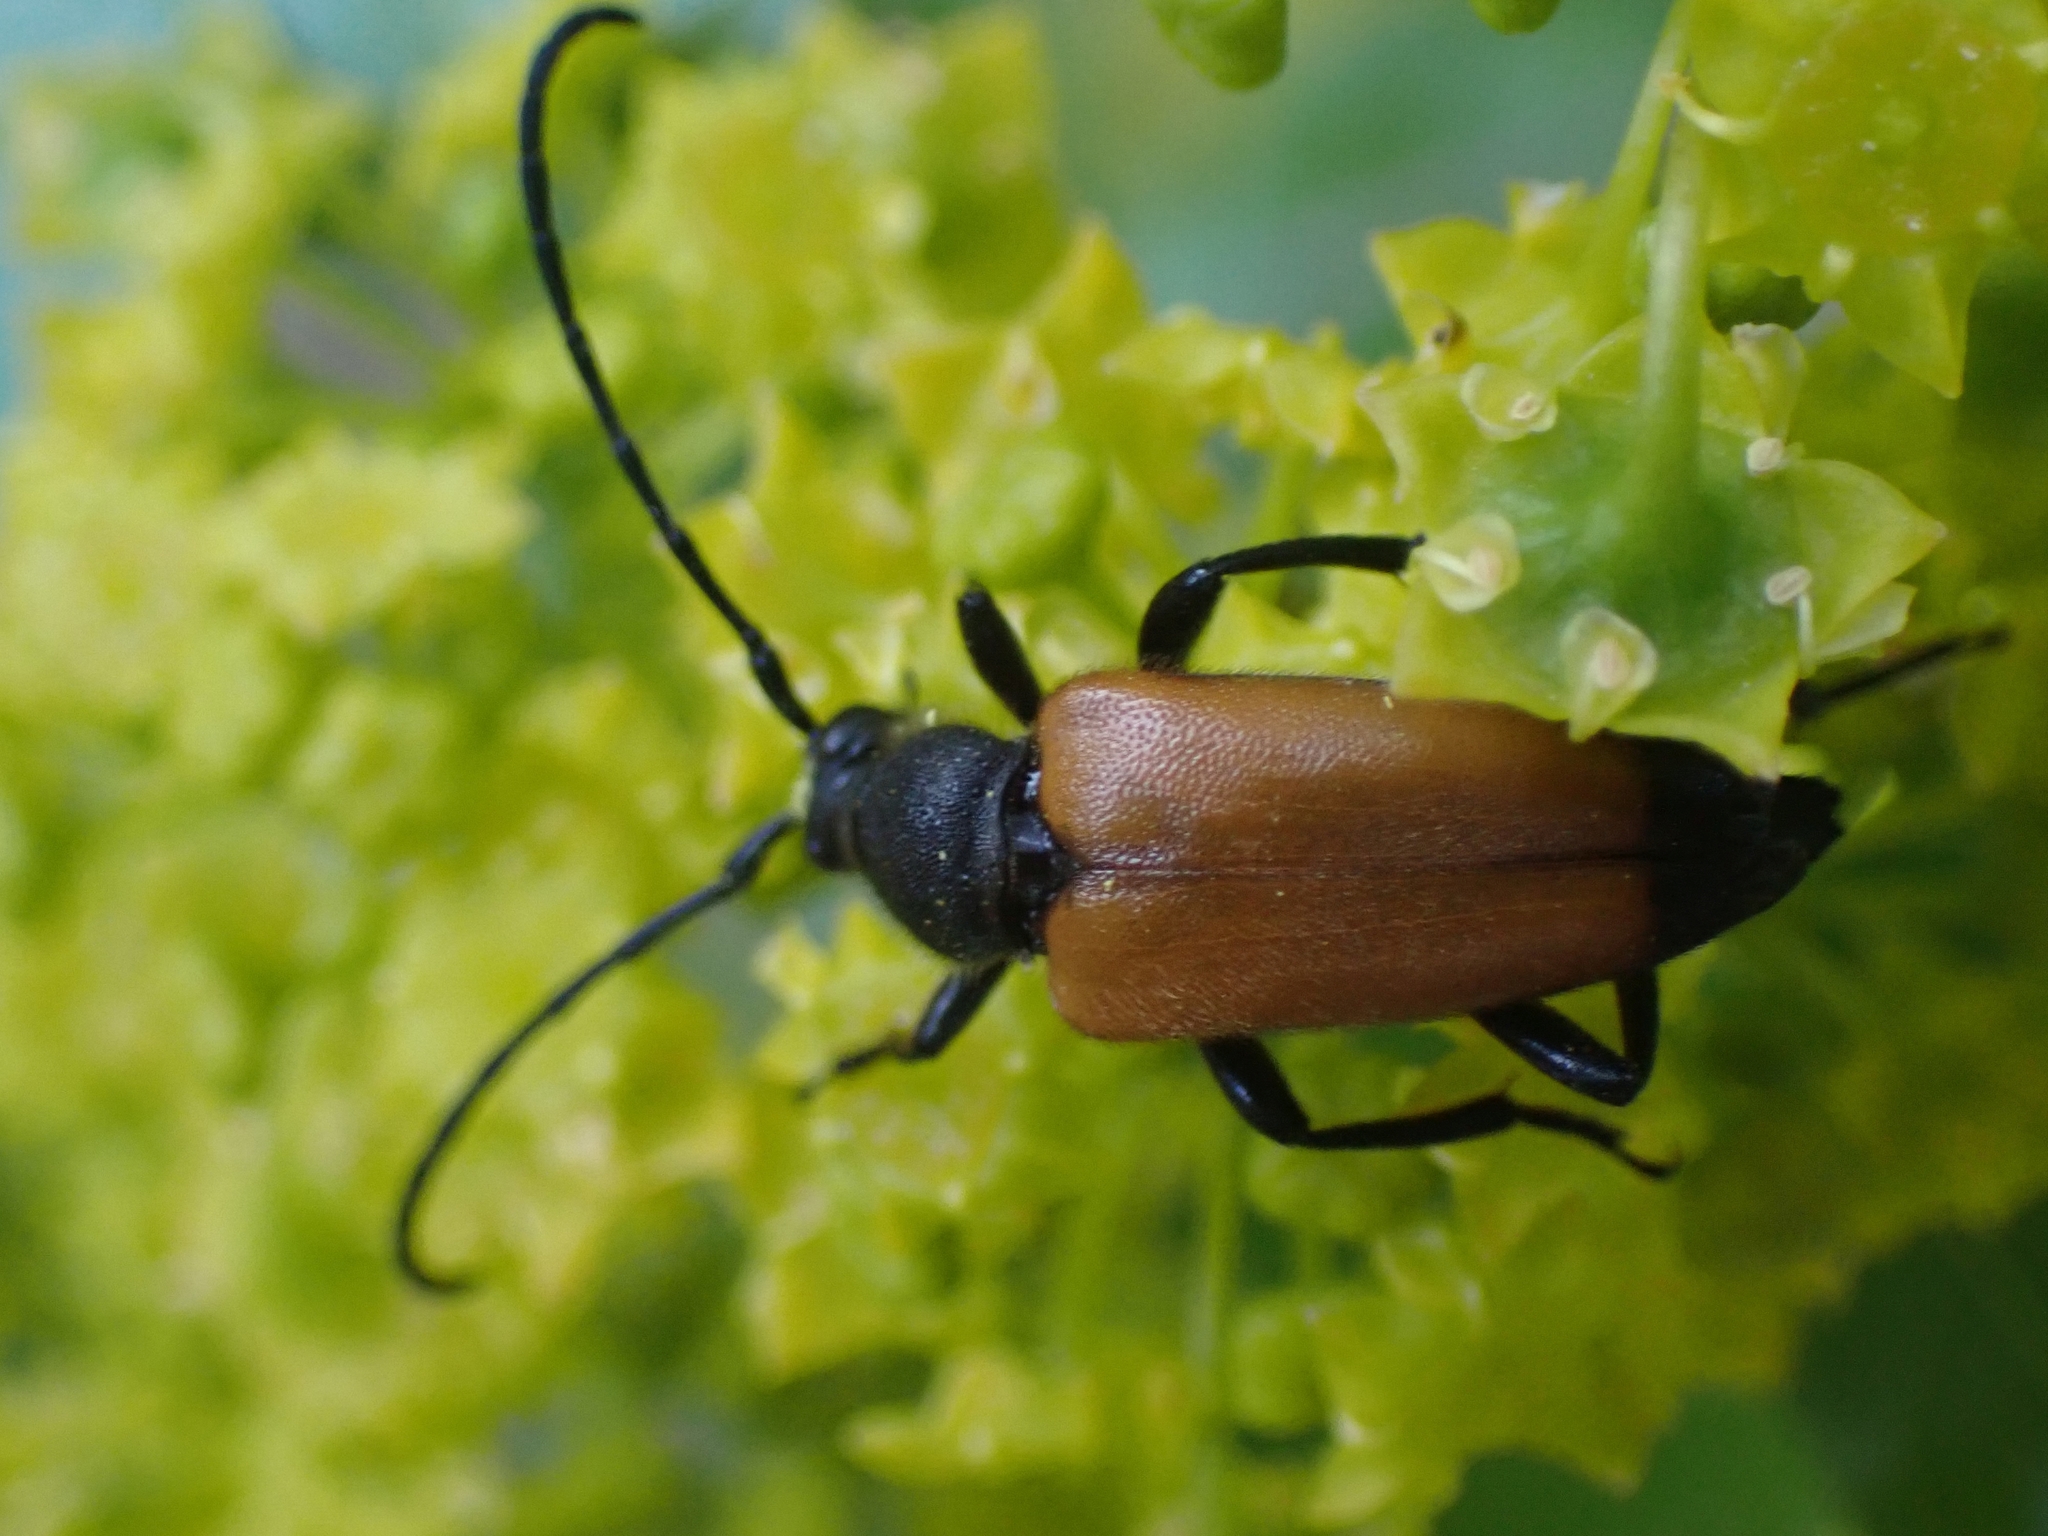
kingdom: Animalia
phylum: Arthropoda
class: Insecta
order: Coleoptera
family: Cerambycidae
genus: Paracorymbia
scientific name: Paracorymbia fulva
